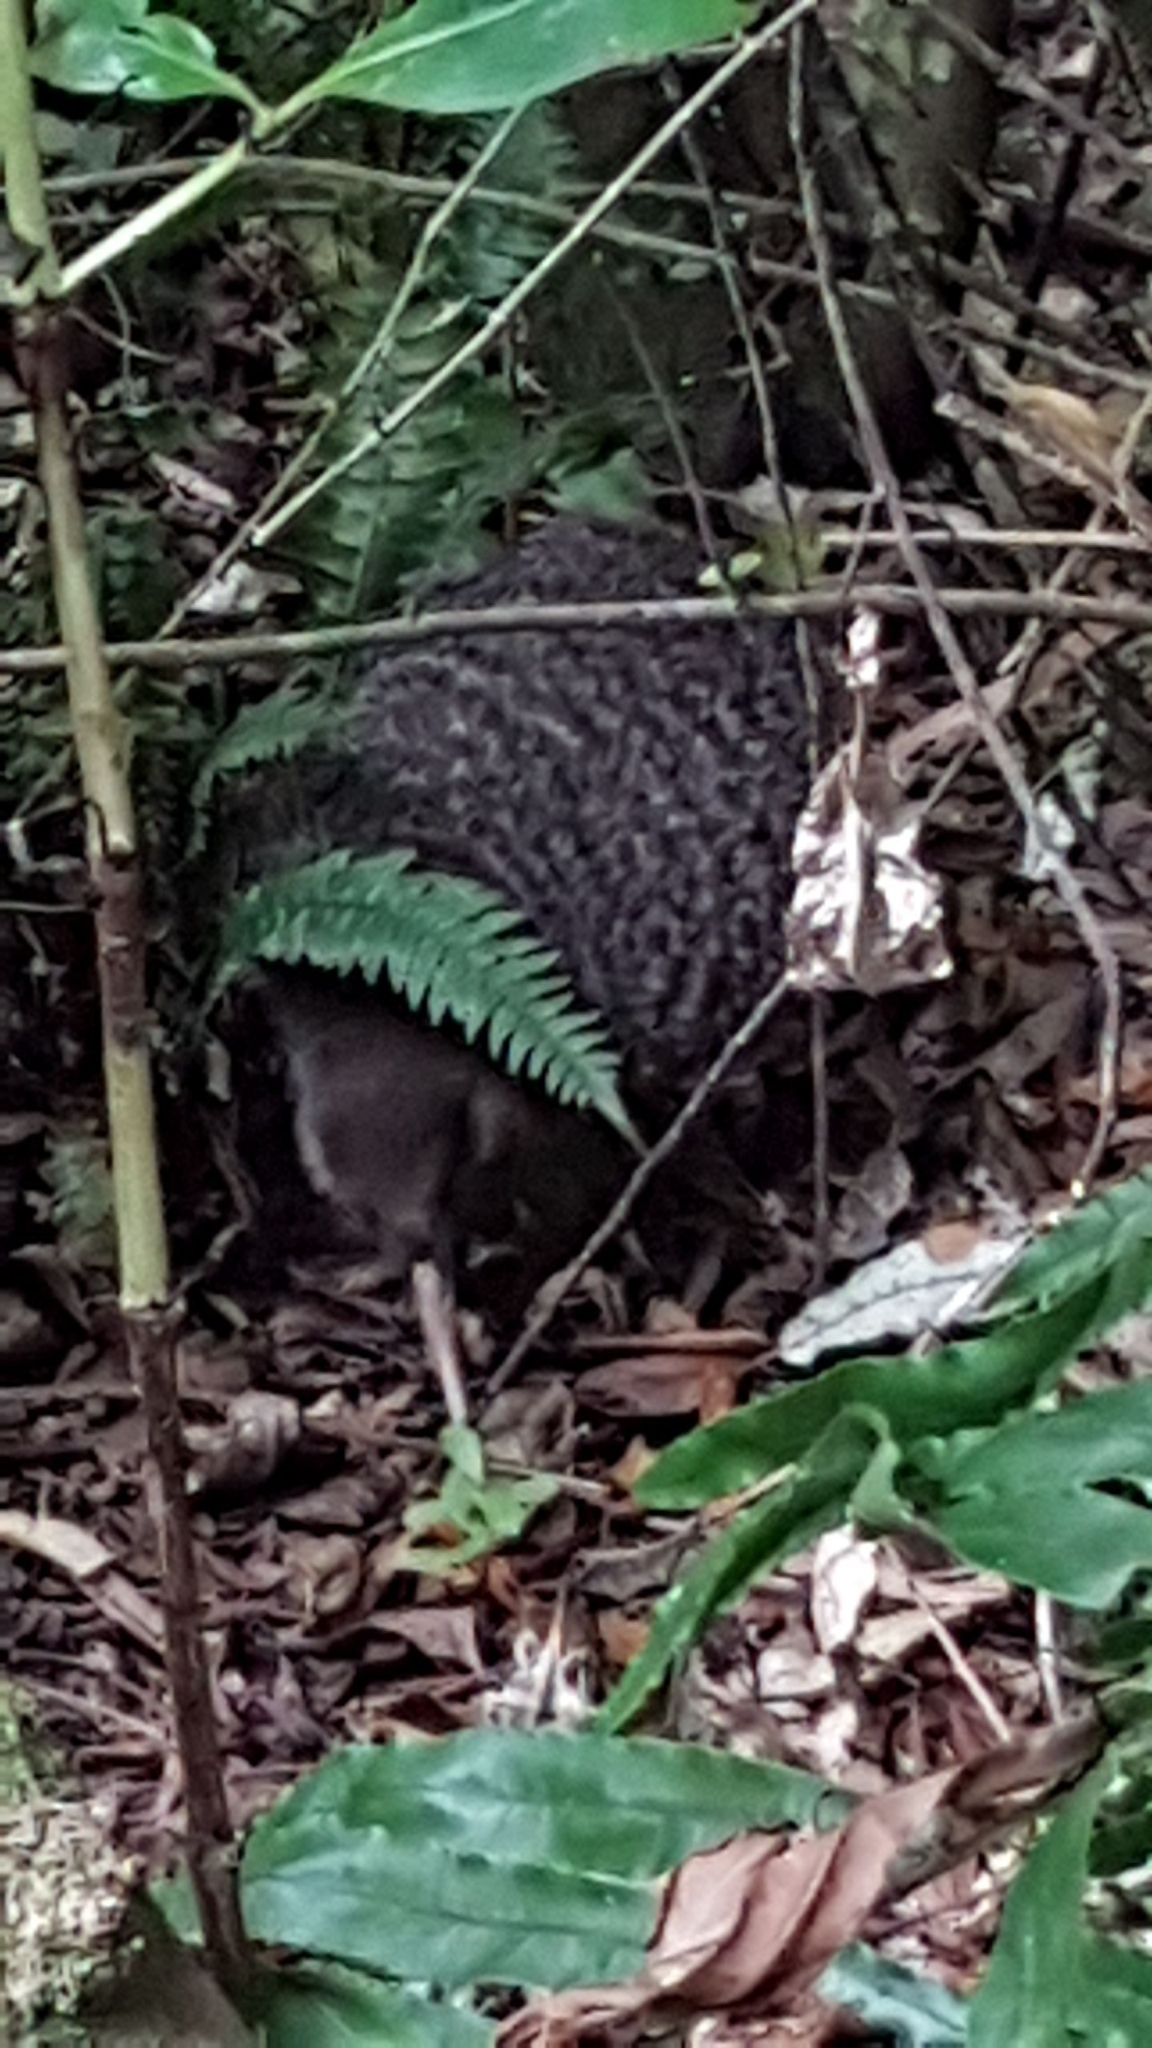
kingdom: Animalia
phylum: Chordata
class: Aves
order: Apterygiformes
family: Apterygidae
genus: Apteryx
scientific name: Apteryx owenii
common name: Little spotted kiwi
